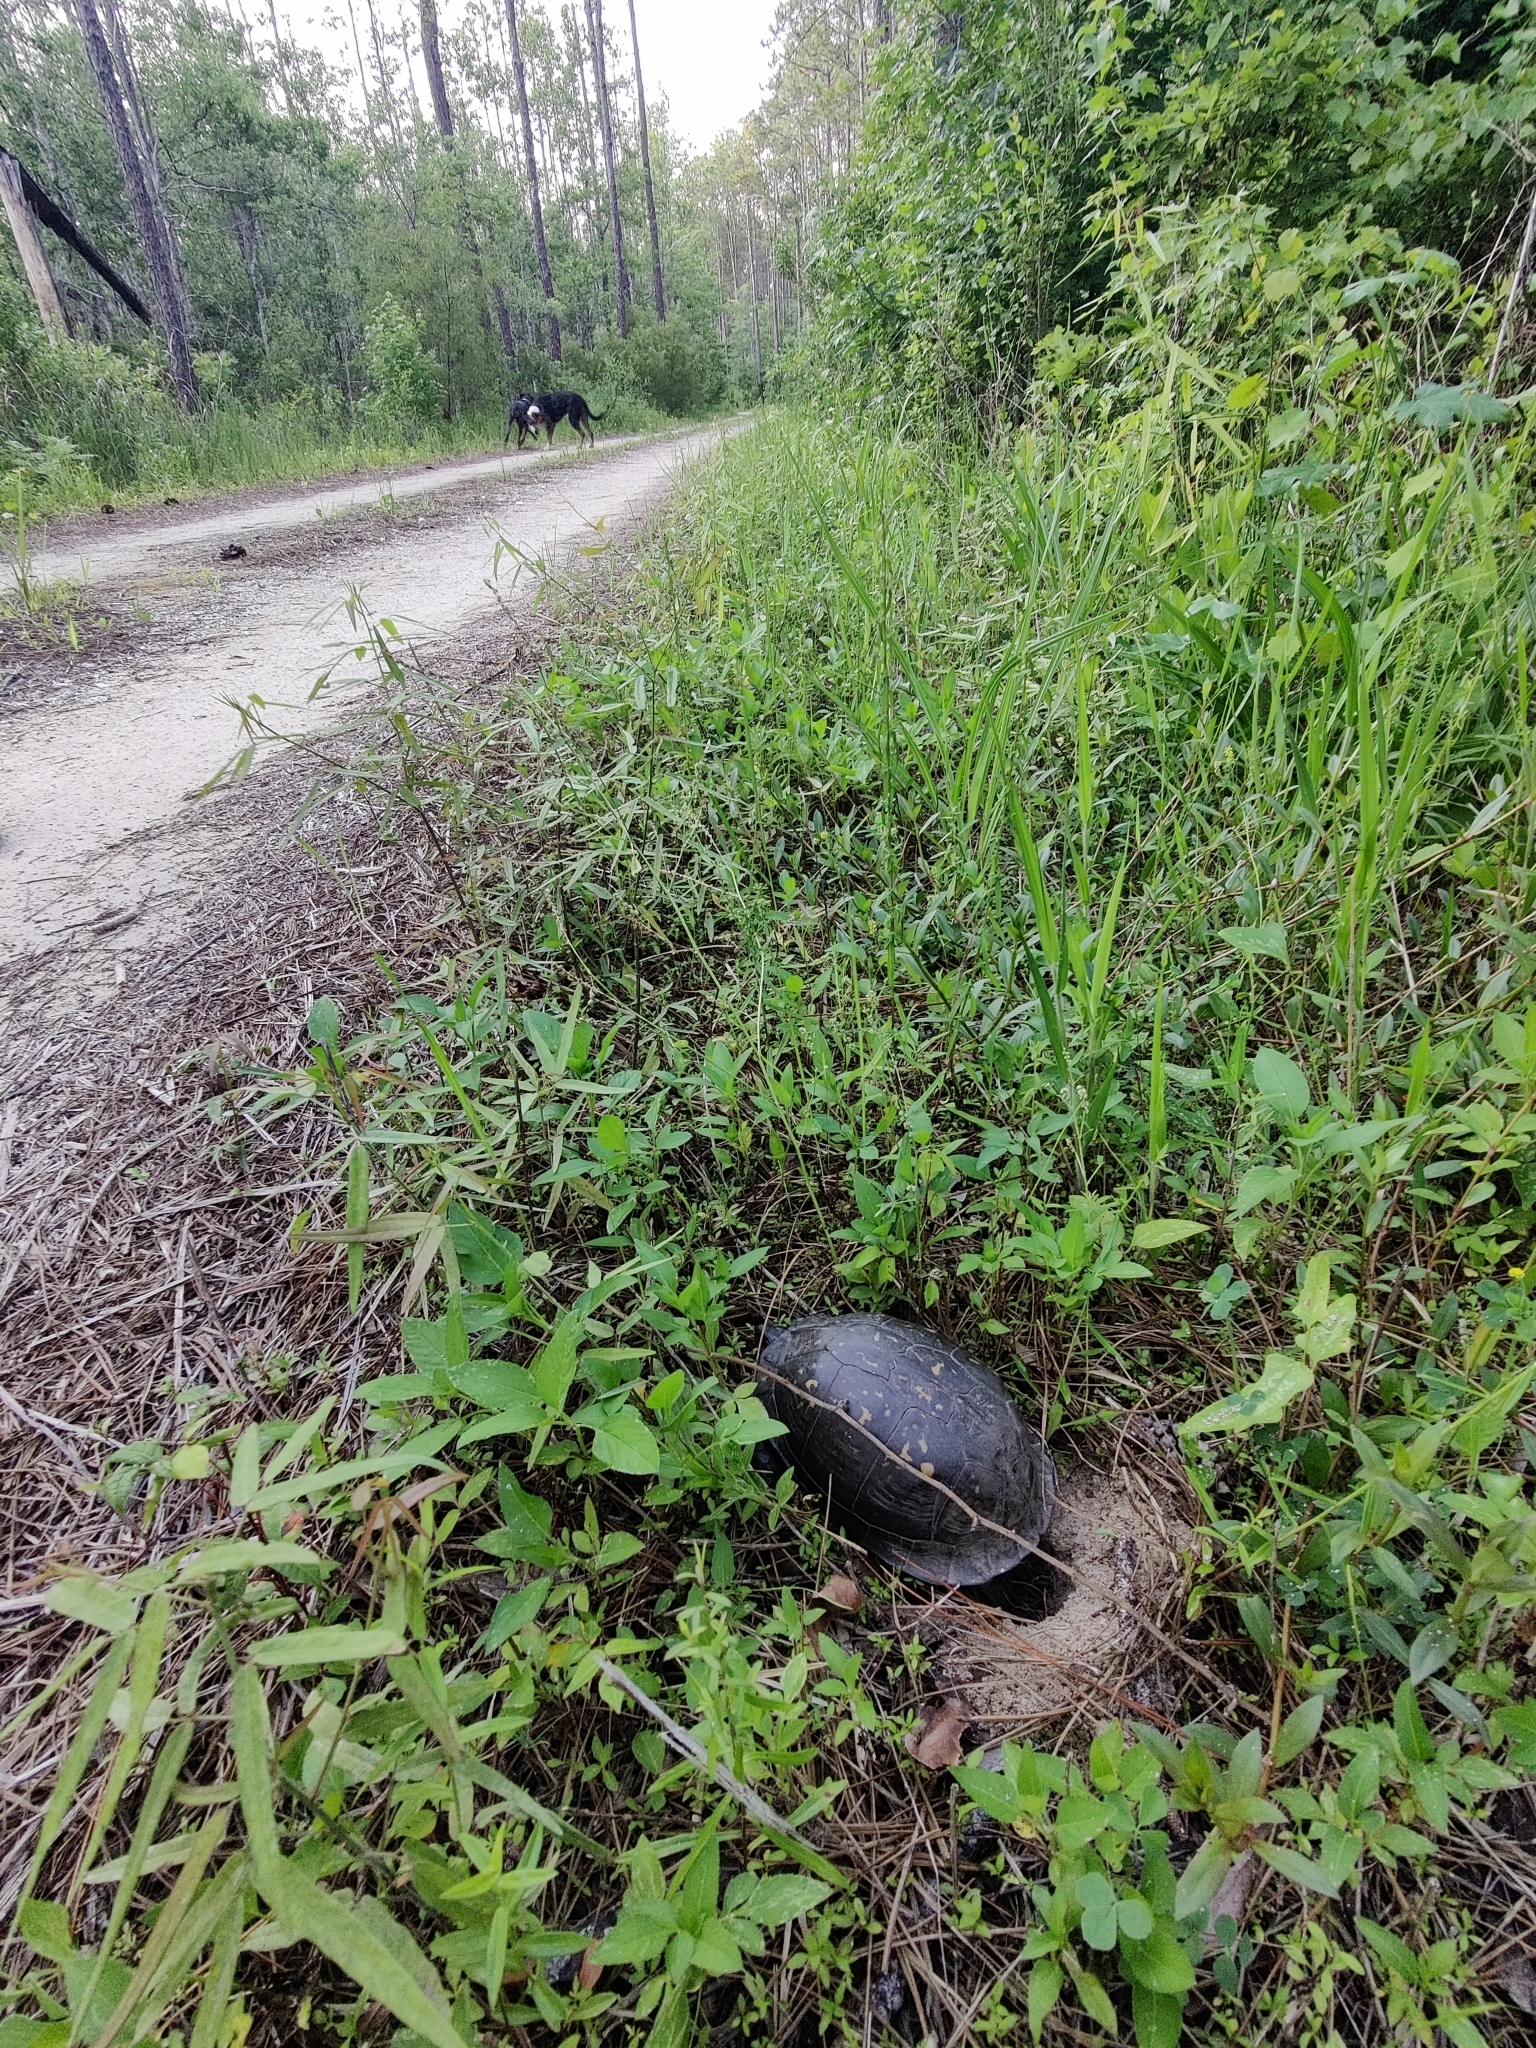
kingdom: Animalia
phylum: Chordata
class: Testudines
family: Emydidae
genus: Terrapene
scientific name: Terrapene carolina
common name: Common box turtle
